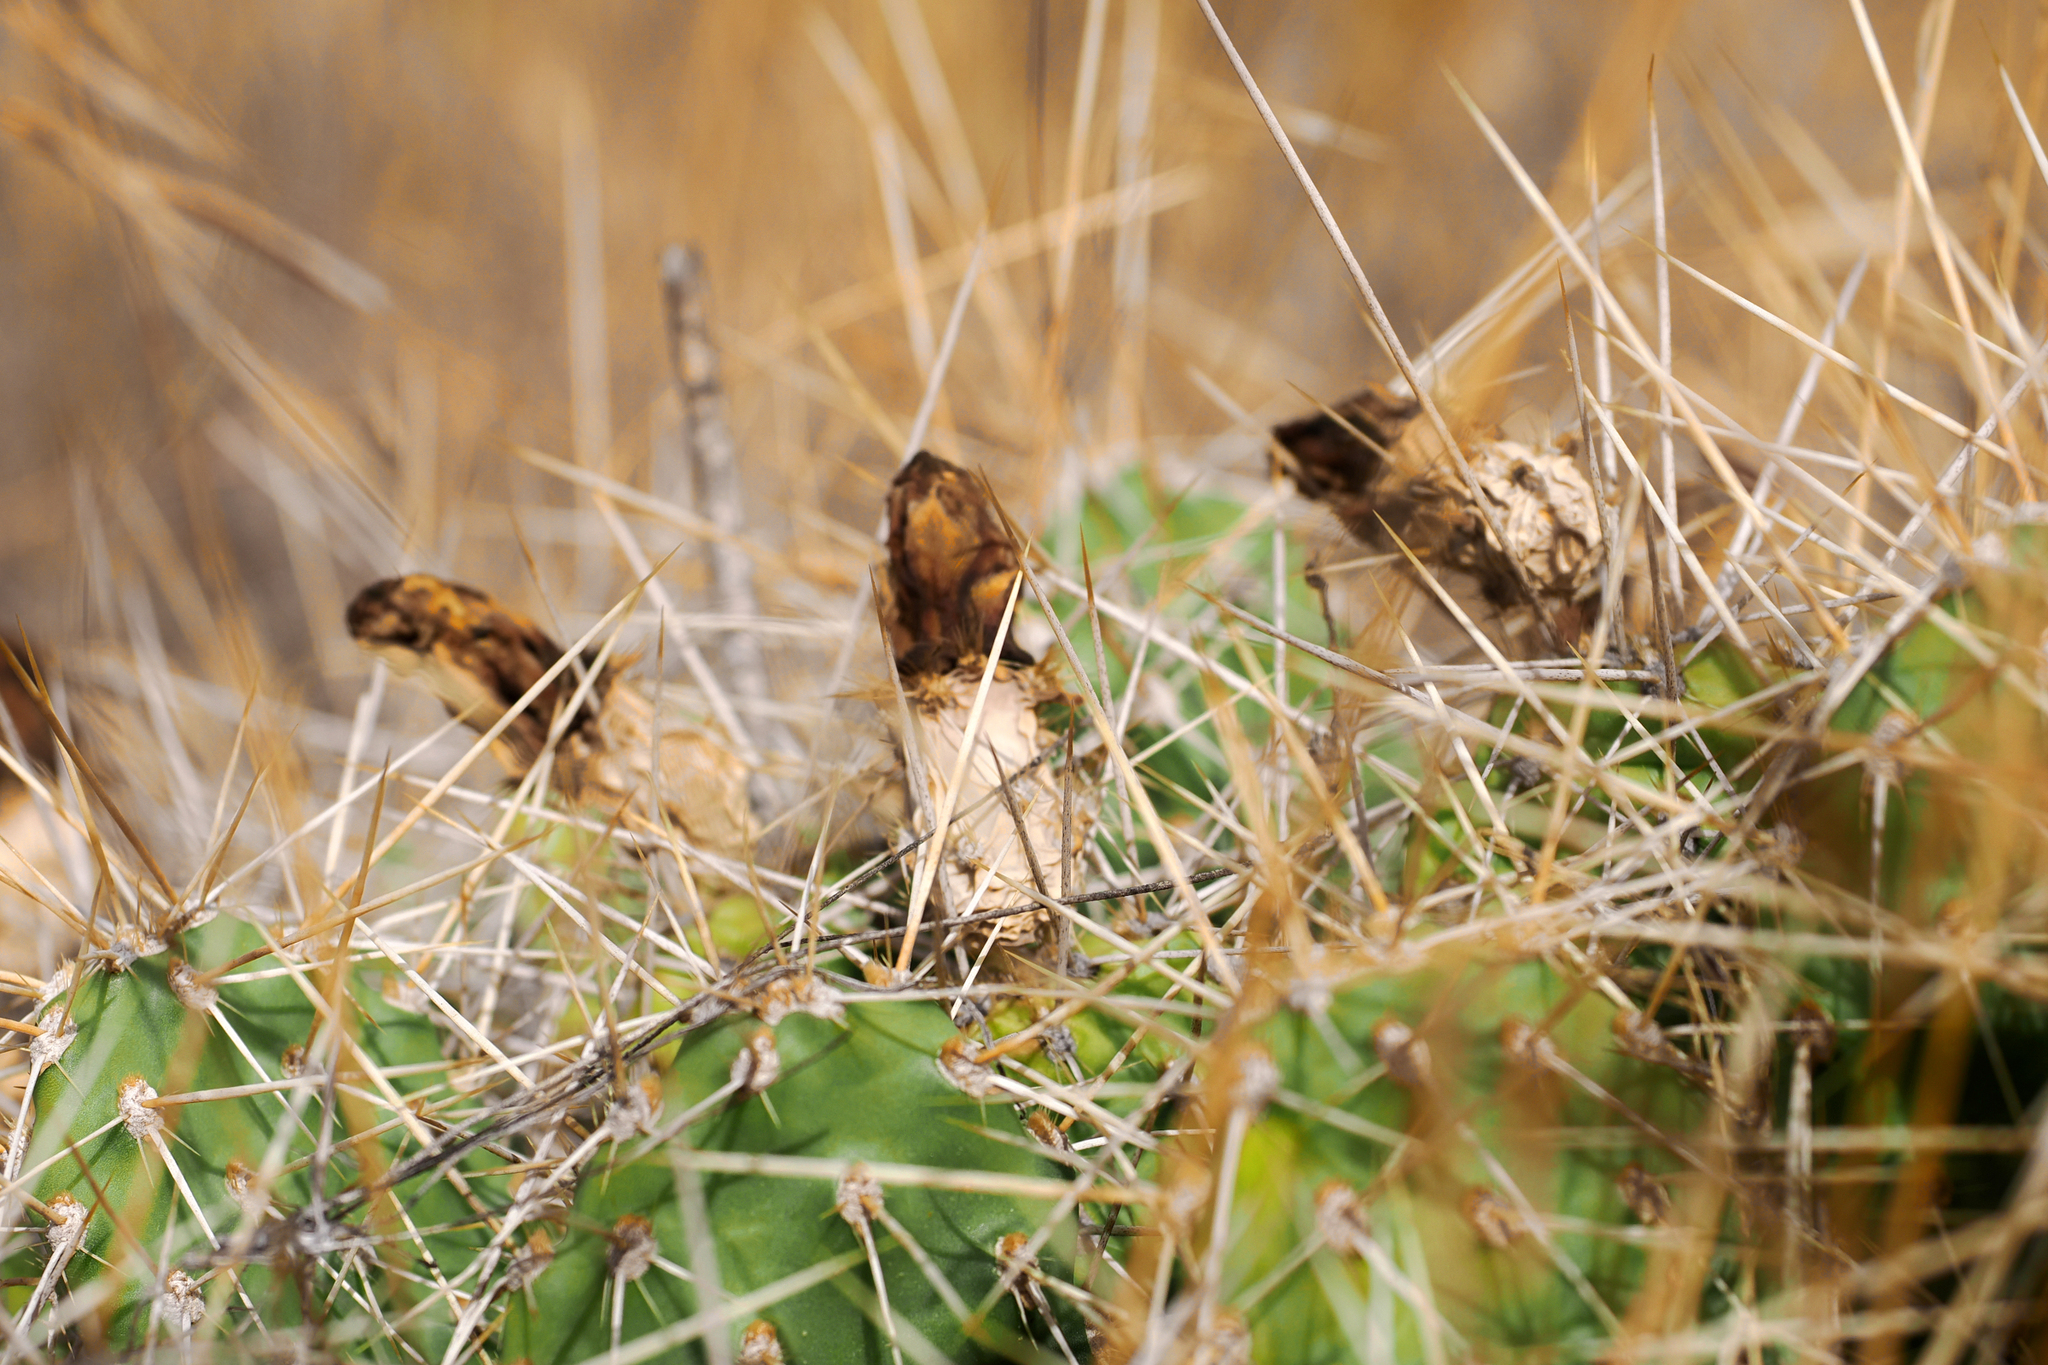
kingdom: Plantae
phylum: Tracheophyta
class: Magnoliopsida
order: Caryophyllales
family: Cactaceae
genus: Opuntia
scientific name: Opuntia columbiana
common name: Columbia prickly-pear
